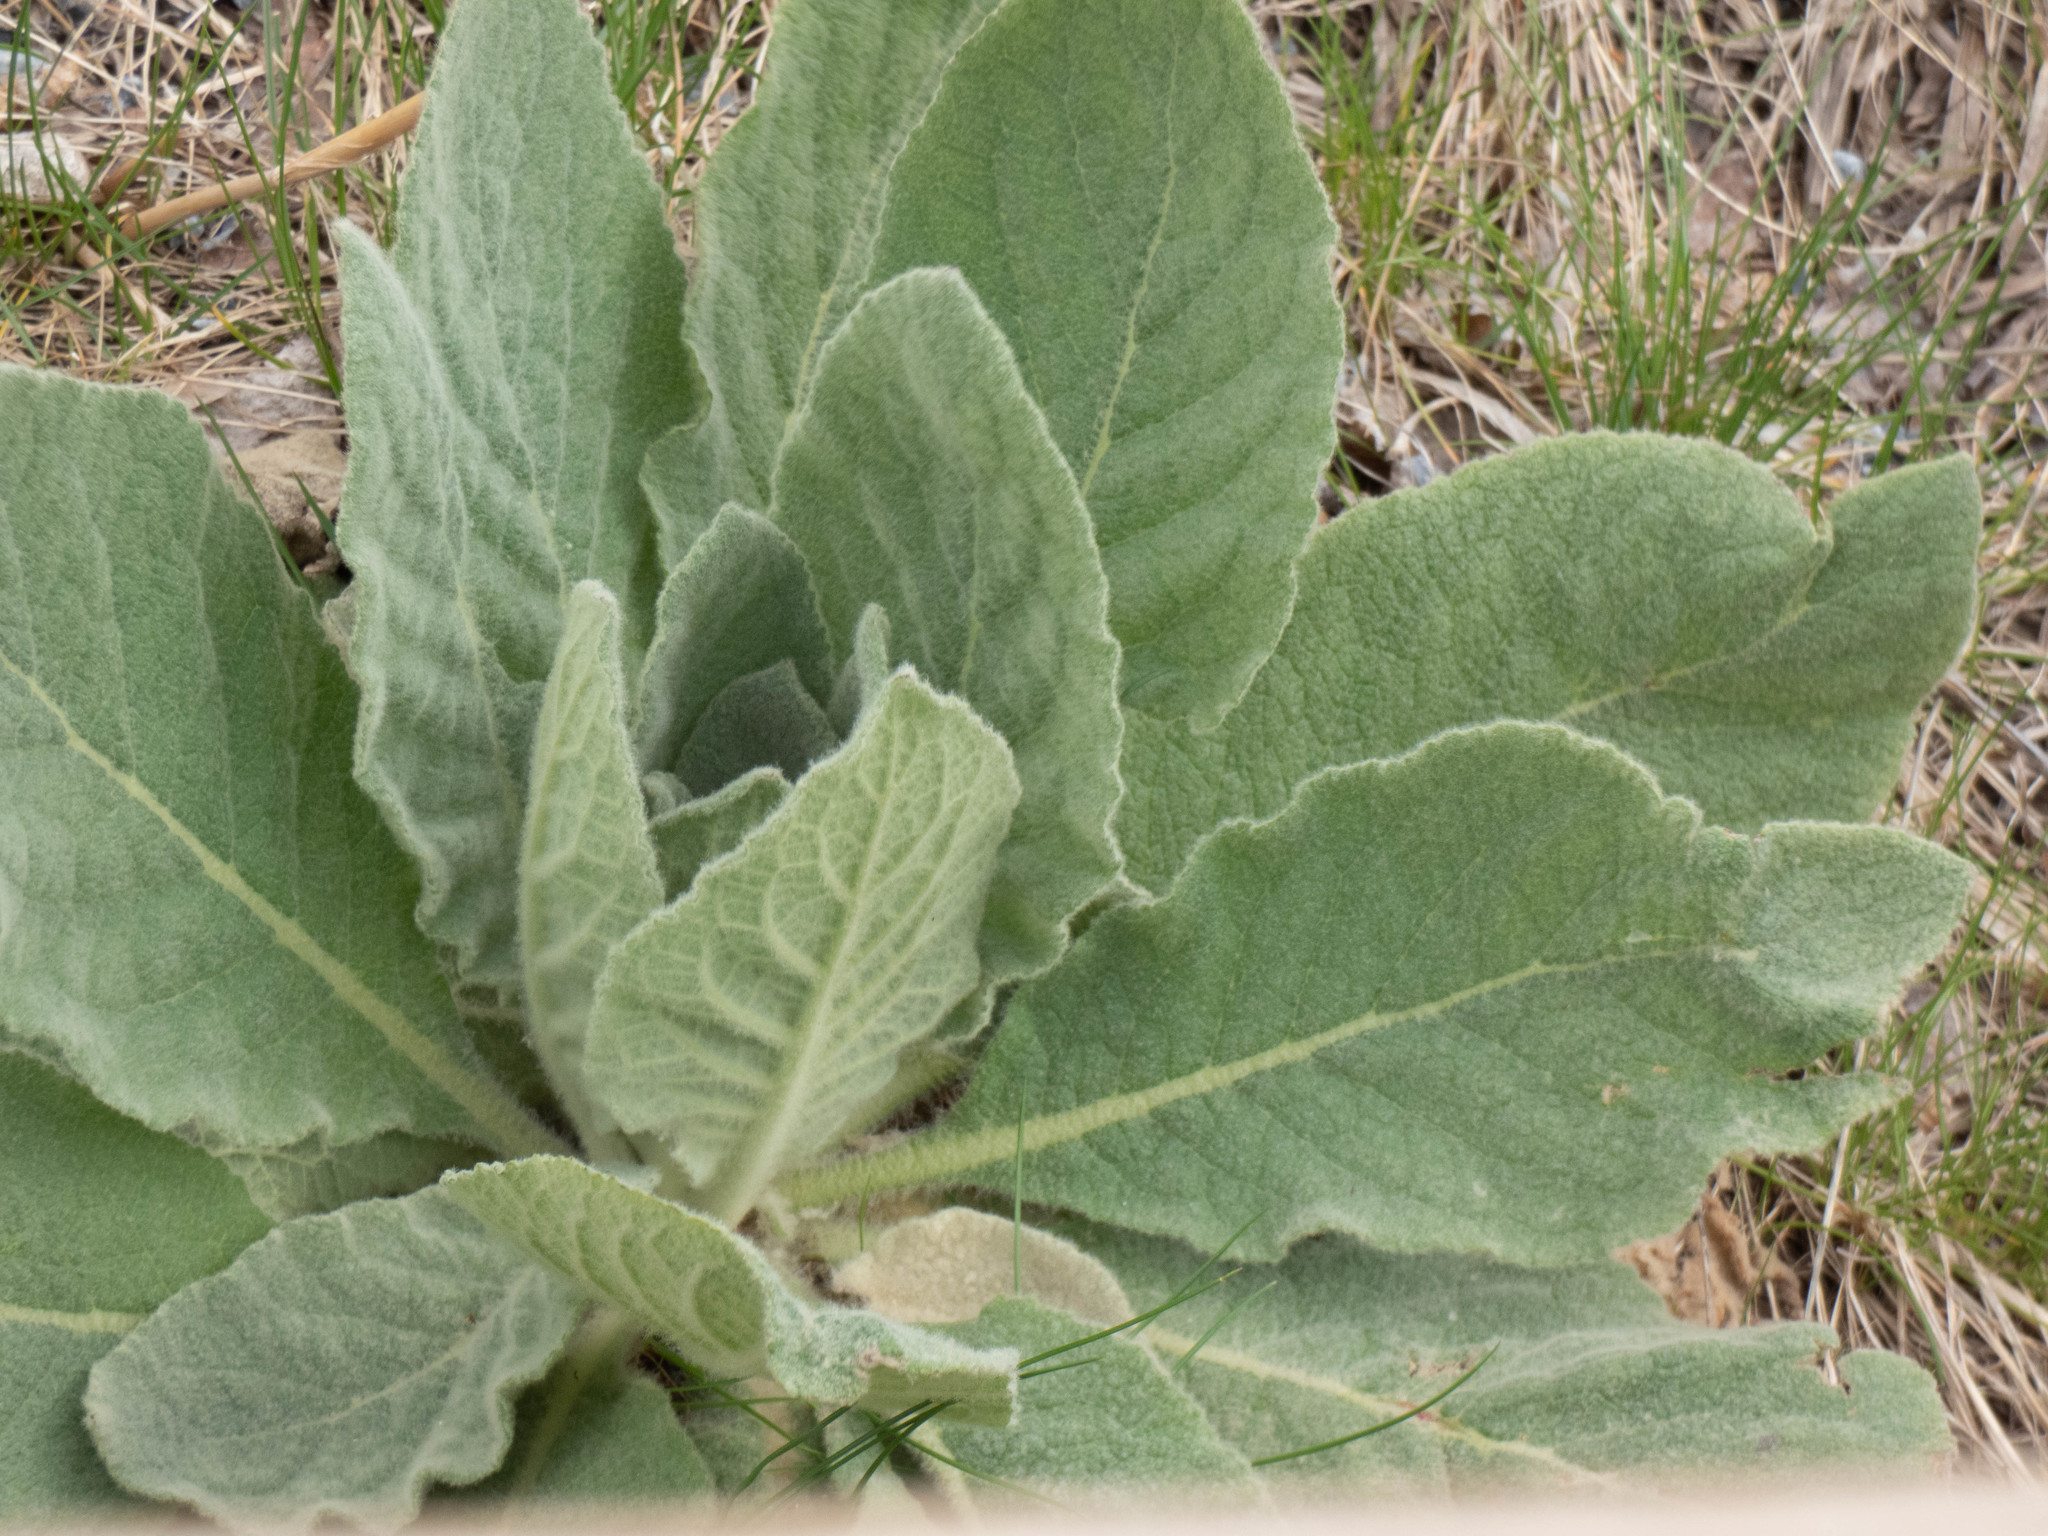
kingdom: Plantae
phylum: Tracheophyta
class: Magnoliopsida
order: Lamiales
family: Scrophulariaceae
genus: Verbascum
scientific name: Verbascum thapsus
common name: Common mullein
